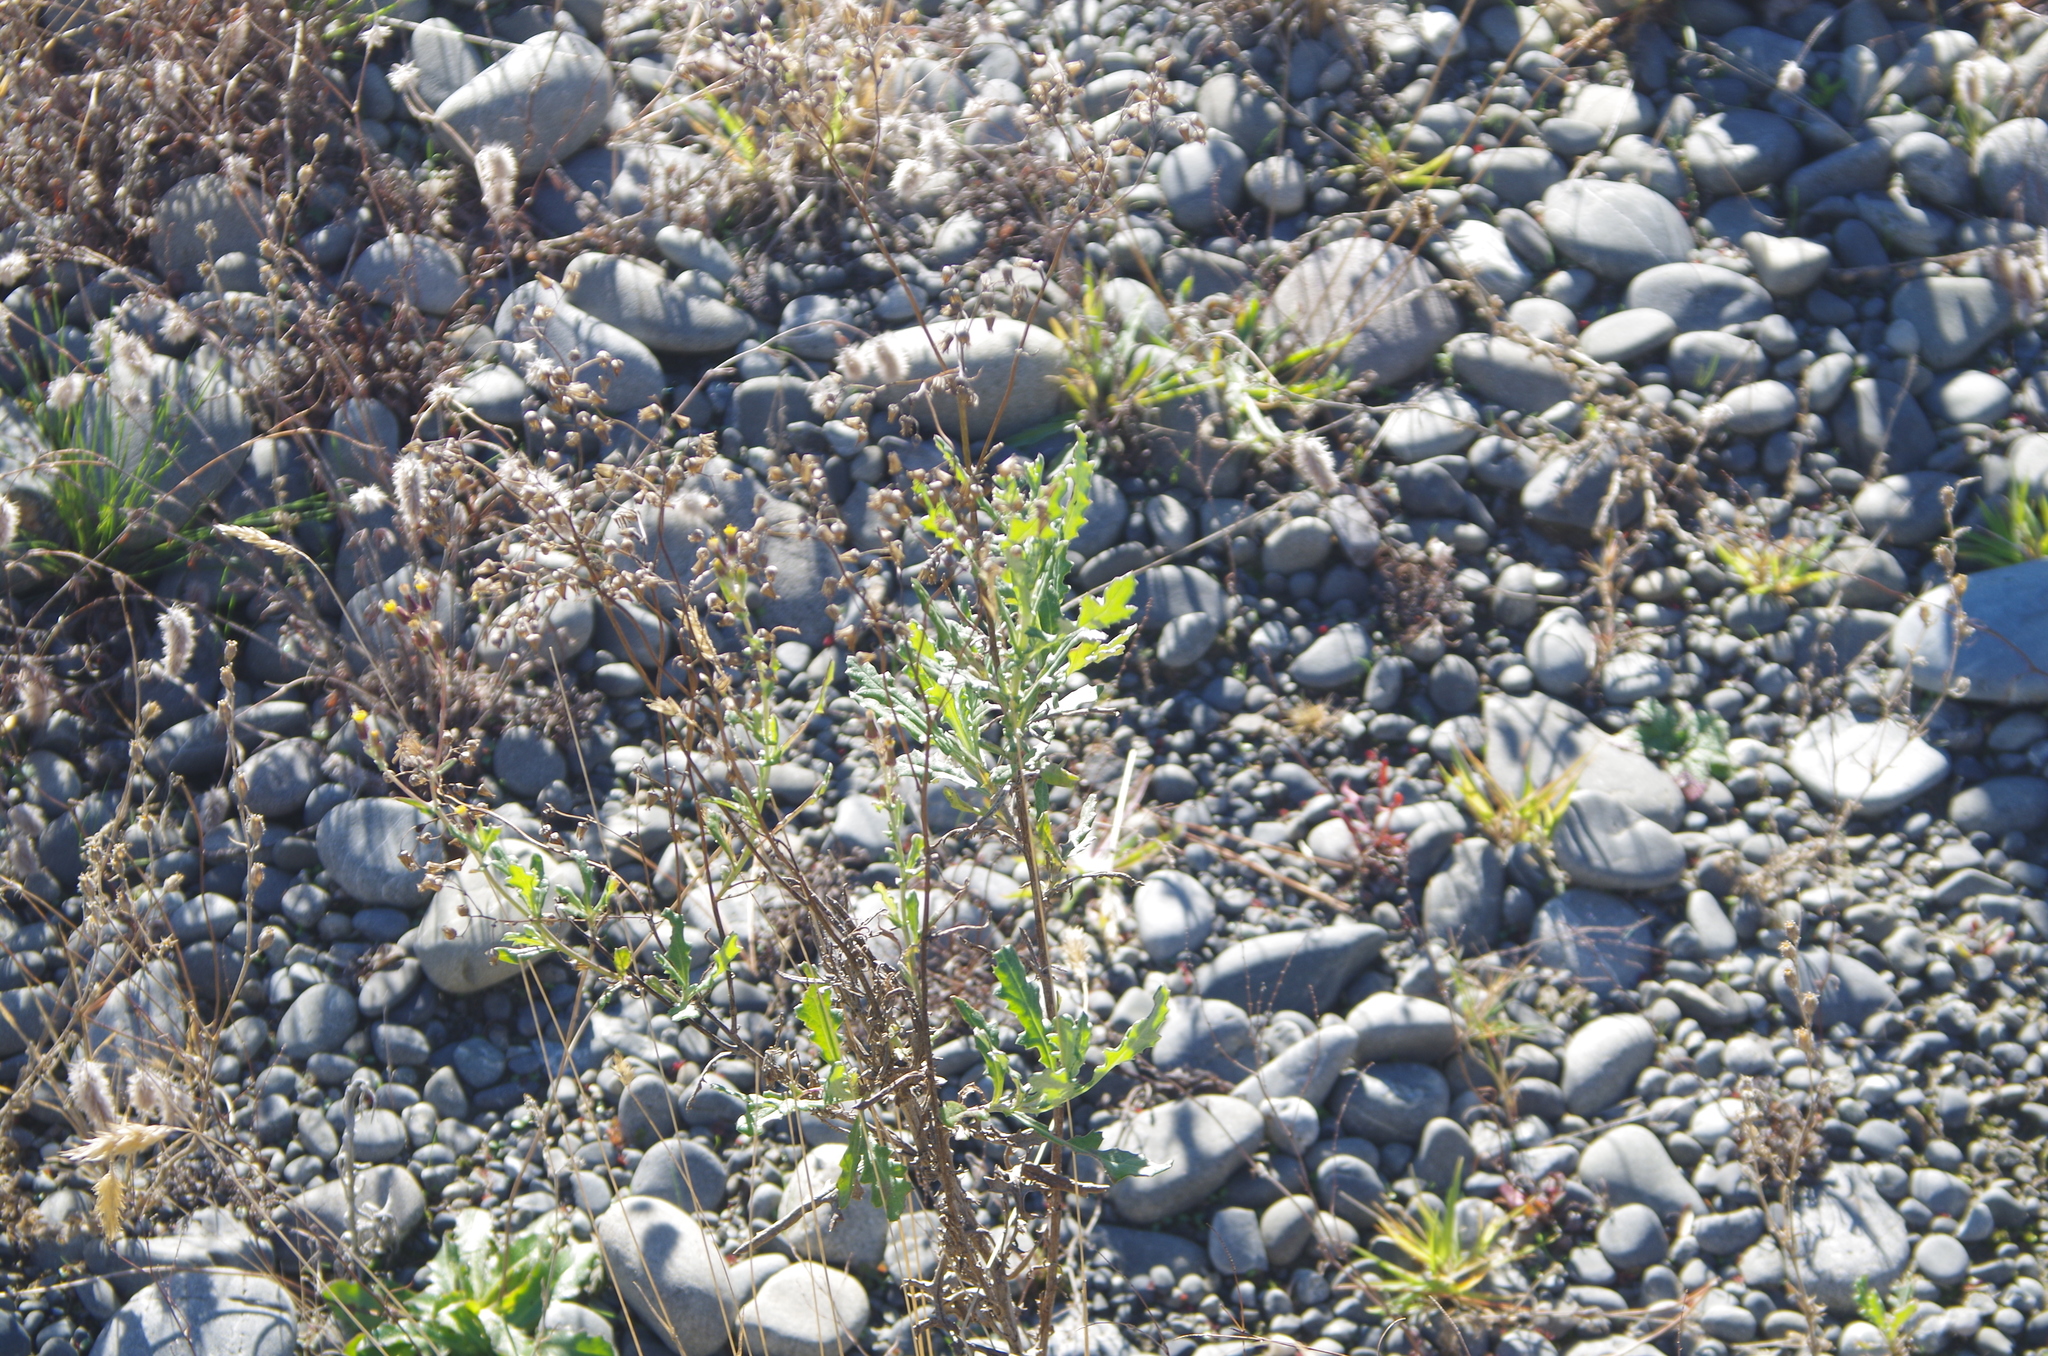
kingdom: Plantae
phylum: Tracheophyta
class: Magnoliopsida
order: Asterales
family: Asteraceae
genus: Senecio
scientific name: Senecio glomeratus
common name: Cutleaf burnweed
